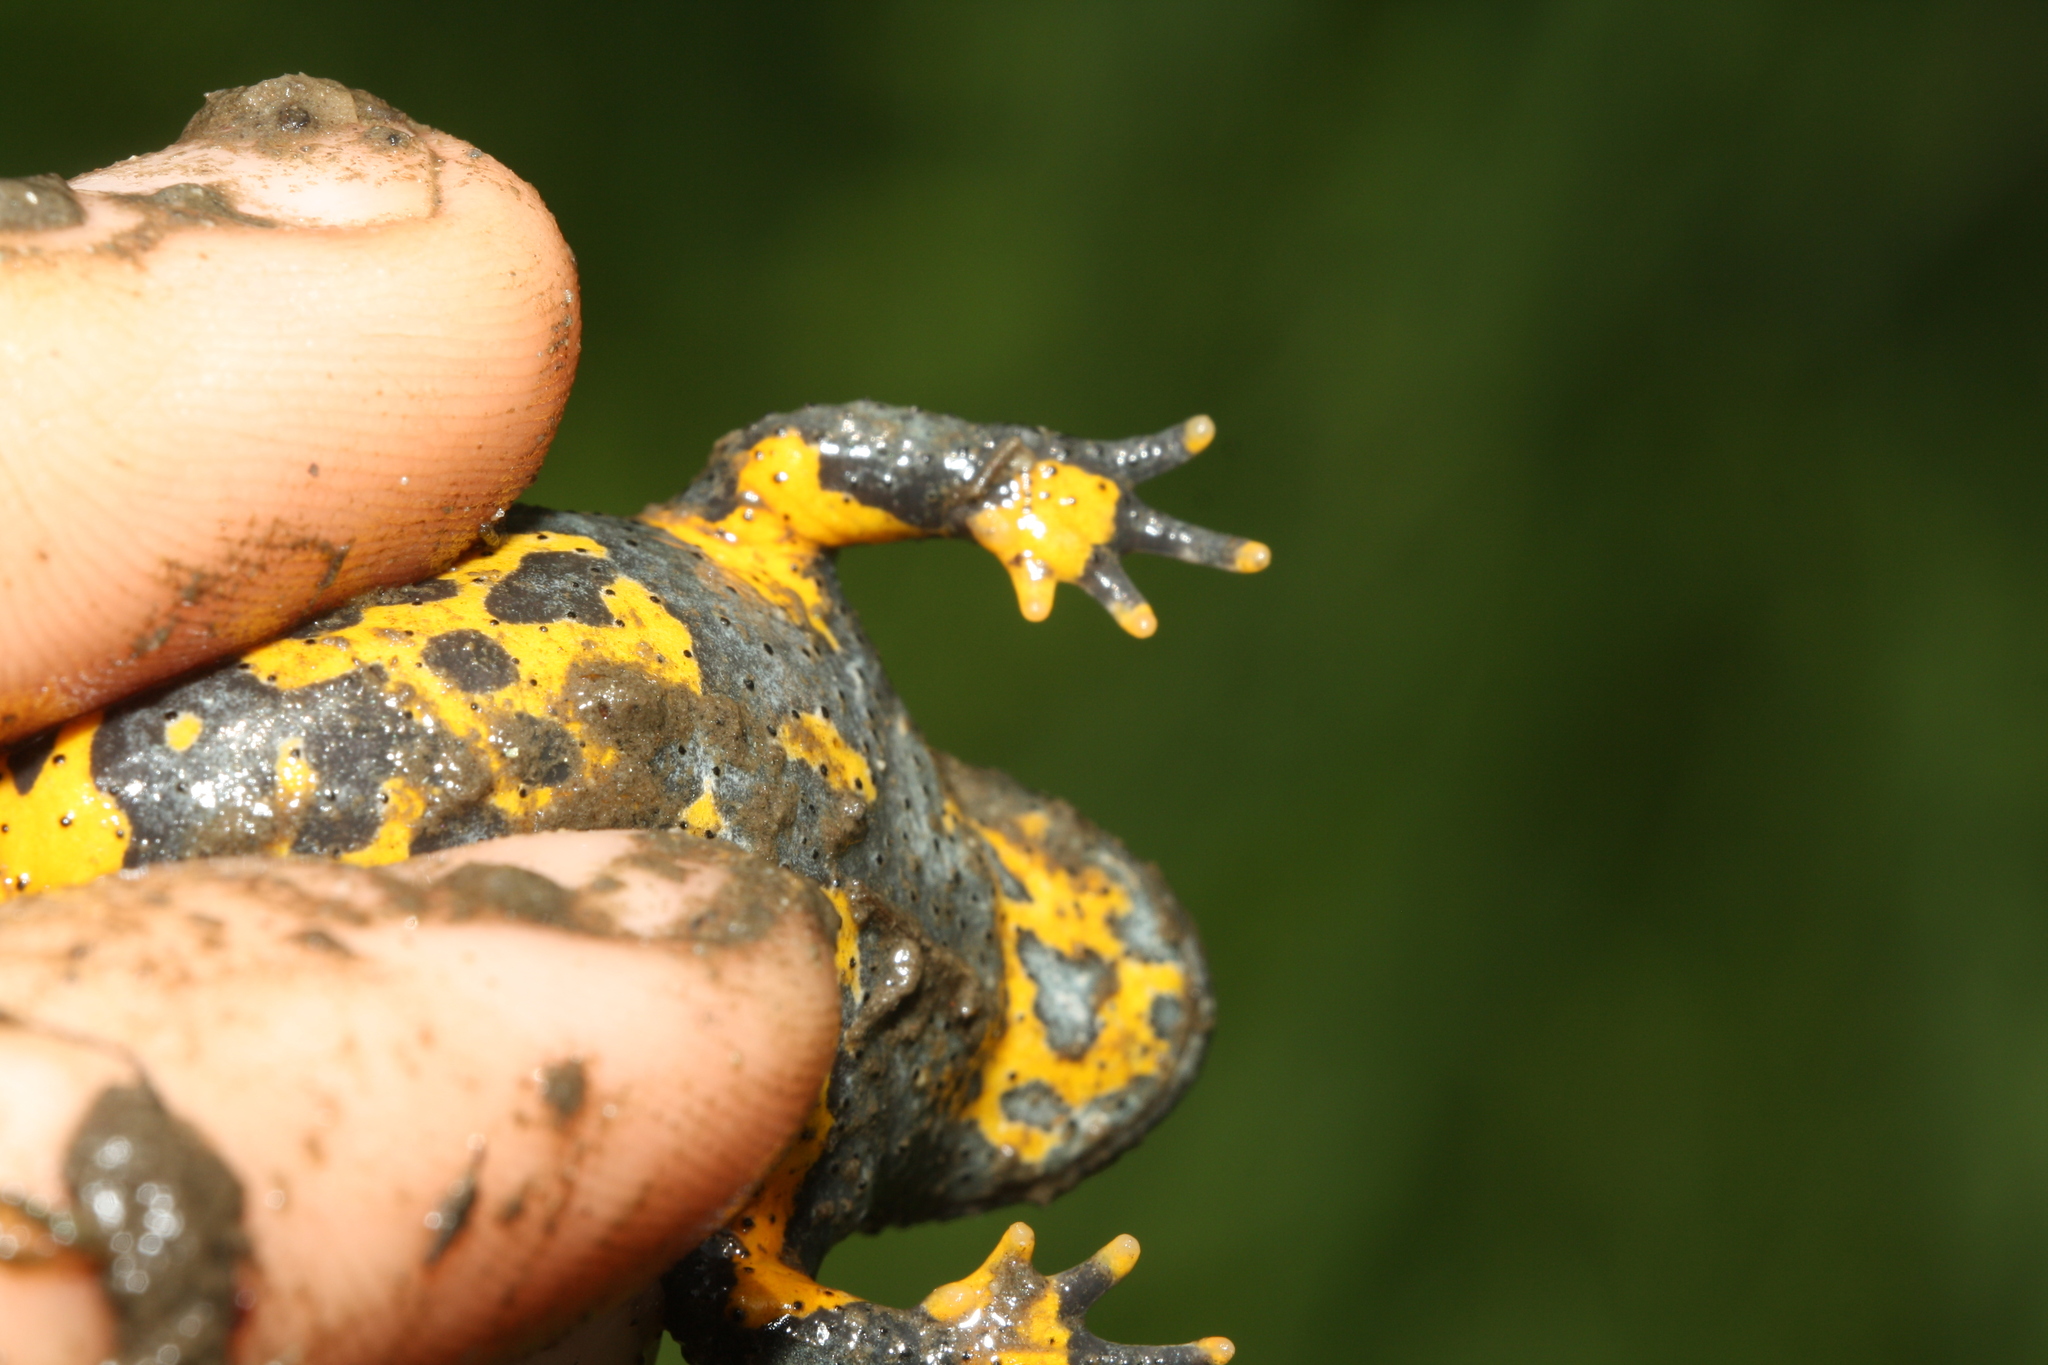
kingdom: Animalia
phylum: Chordata
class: Amphibia
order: Anura
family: Bombinatoridae
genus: Bombina
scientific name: Bombina variegata
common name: Yellow-bellied toad
